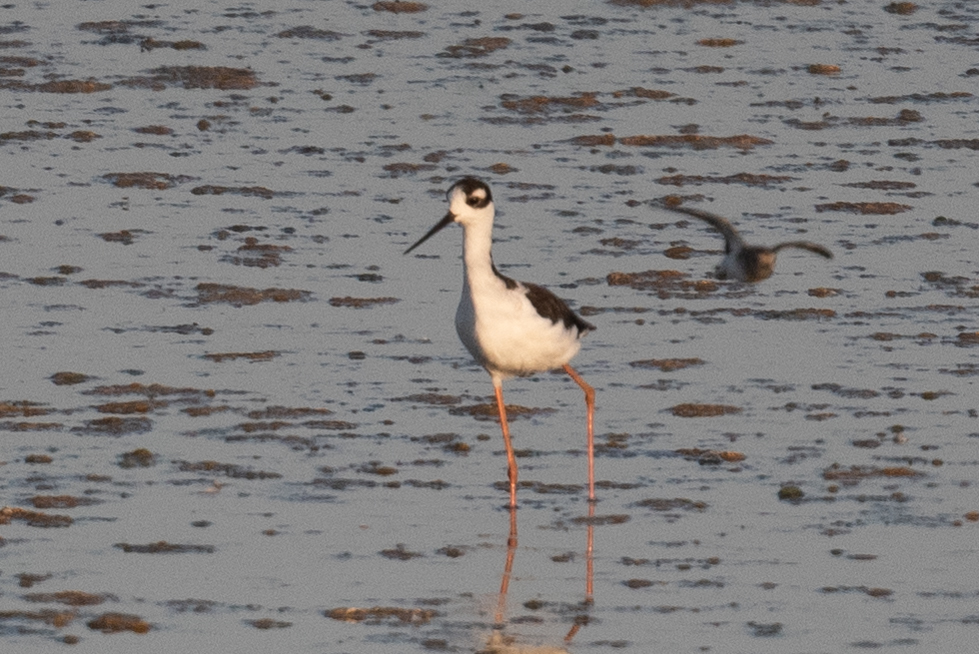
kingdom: Animalia
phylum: Chordata
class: Aves
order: Charadriiformes
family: Recurvirostridae
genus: Himantopus
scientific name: Himantopus mexicanus
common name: Black-necked stilt
